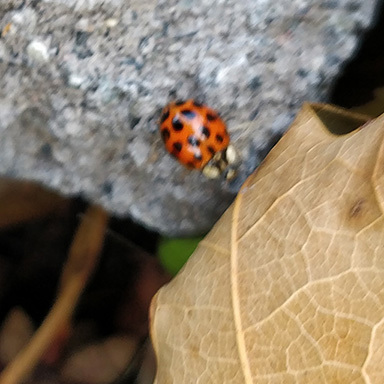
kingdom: Animalia
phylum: Arthropoda
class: Insecta
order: Coleoptera
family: Coccinellidae
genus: Harmonia
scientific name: Harmonia axyridis
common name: Harlequin ladybird
